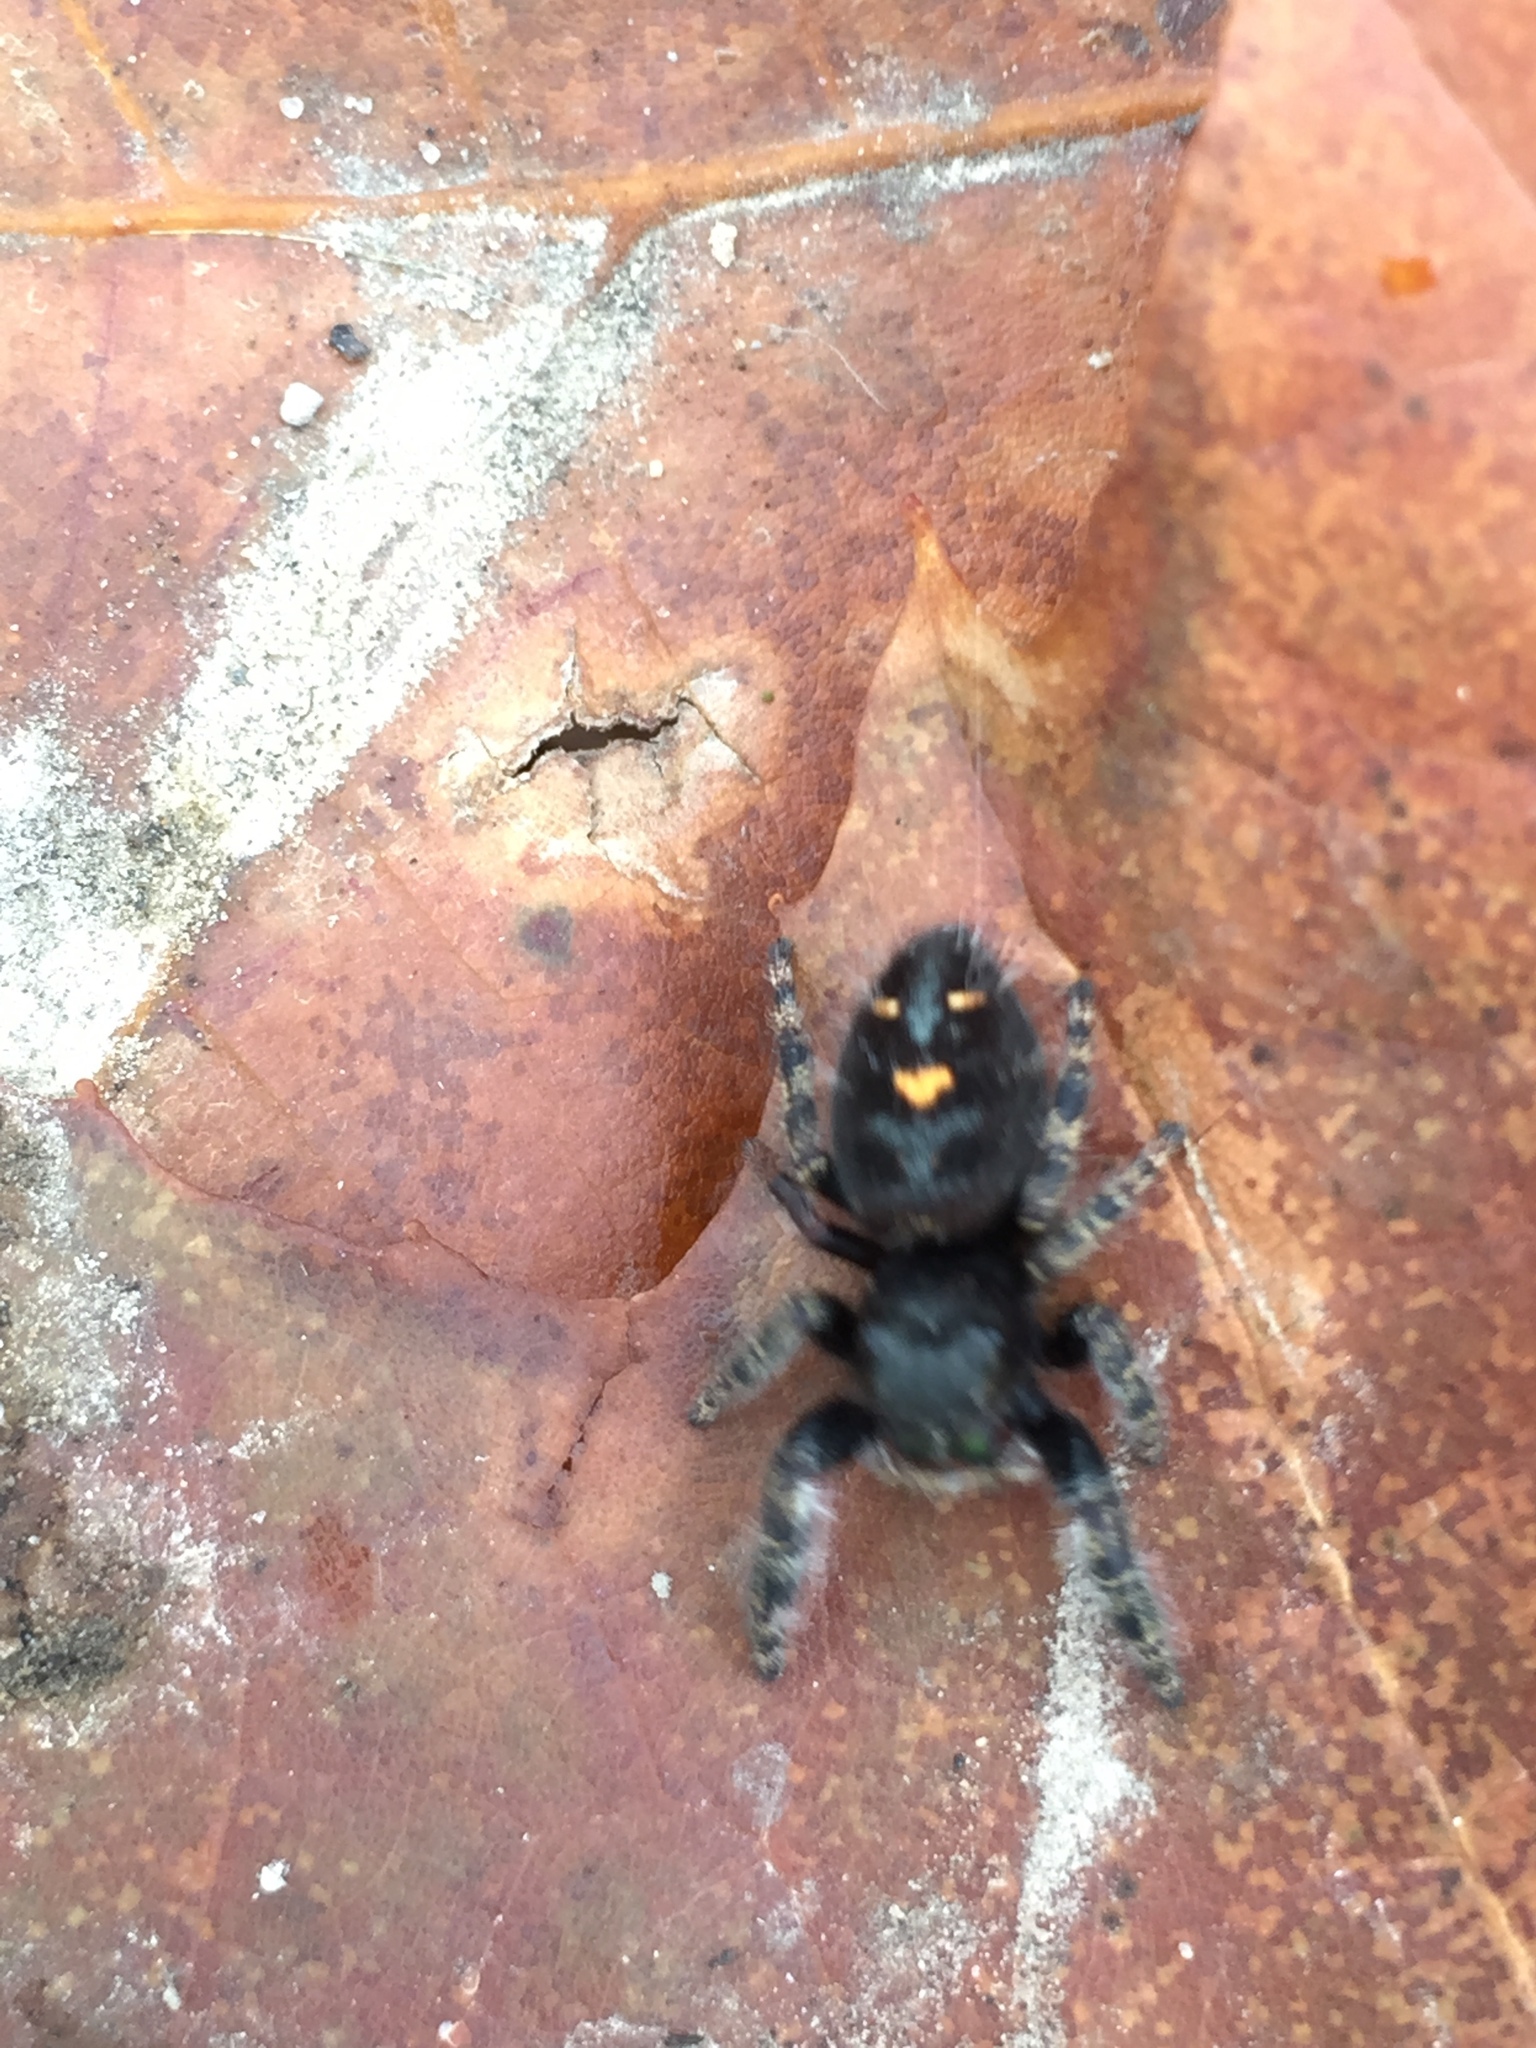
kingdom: Animalia
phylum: Arthropoda
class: Arachnida
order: Araneae
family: Salticidae
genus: Phidippus
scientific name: Phidippus audax
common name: Bold jumper
